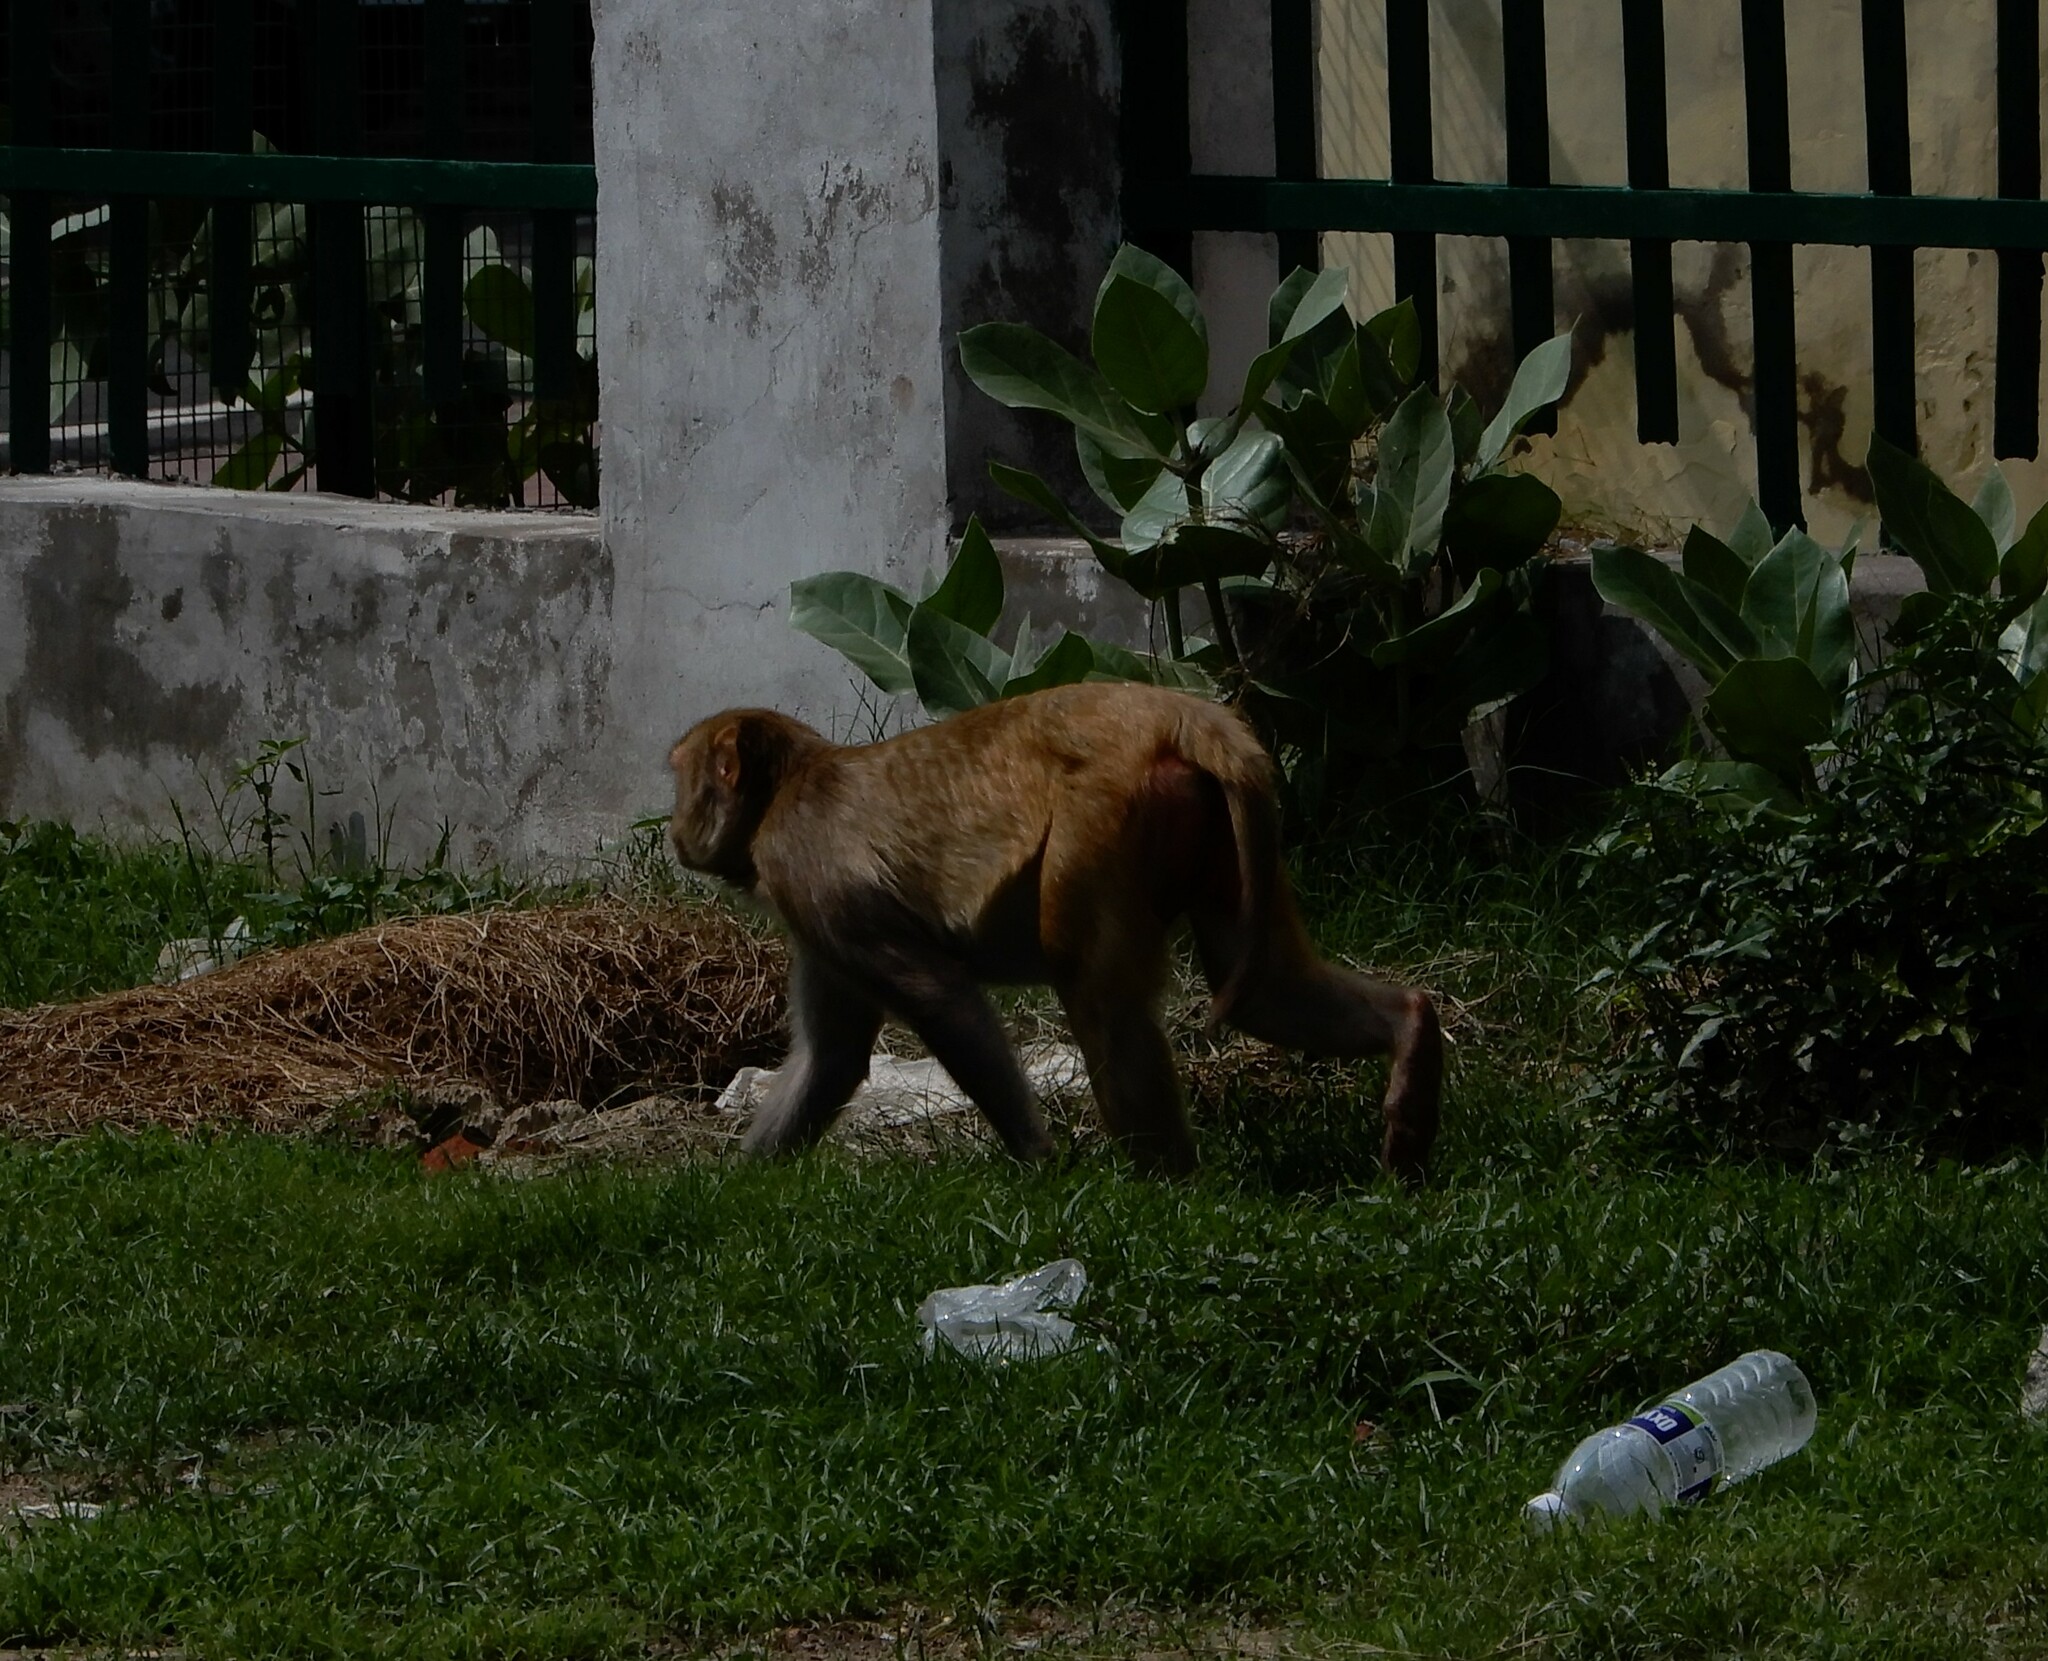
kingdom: Animalia
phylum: Chordata
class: Mammalia
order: Primates
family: Cercopithecidae
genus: Macaca
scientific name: Macaca mulatta
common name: Rhesus monkey
